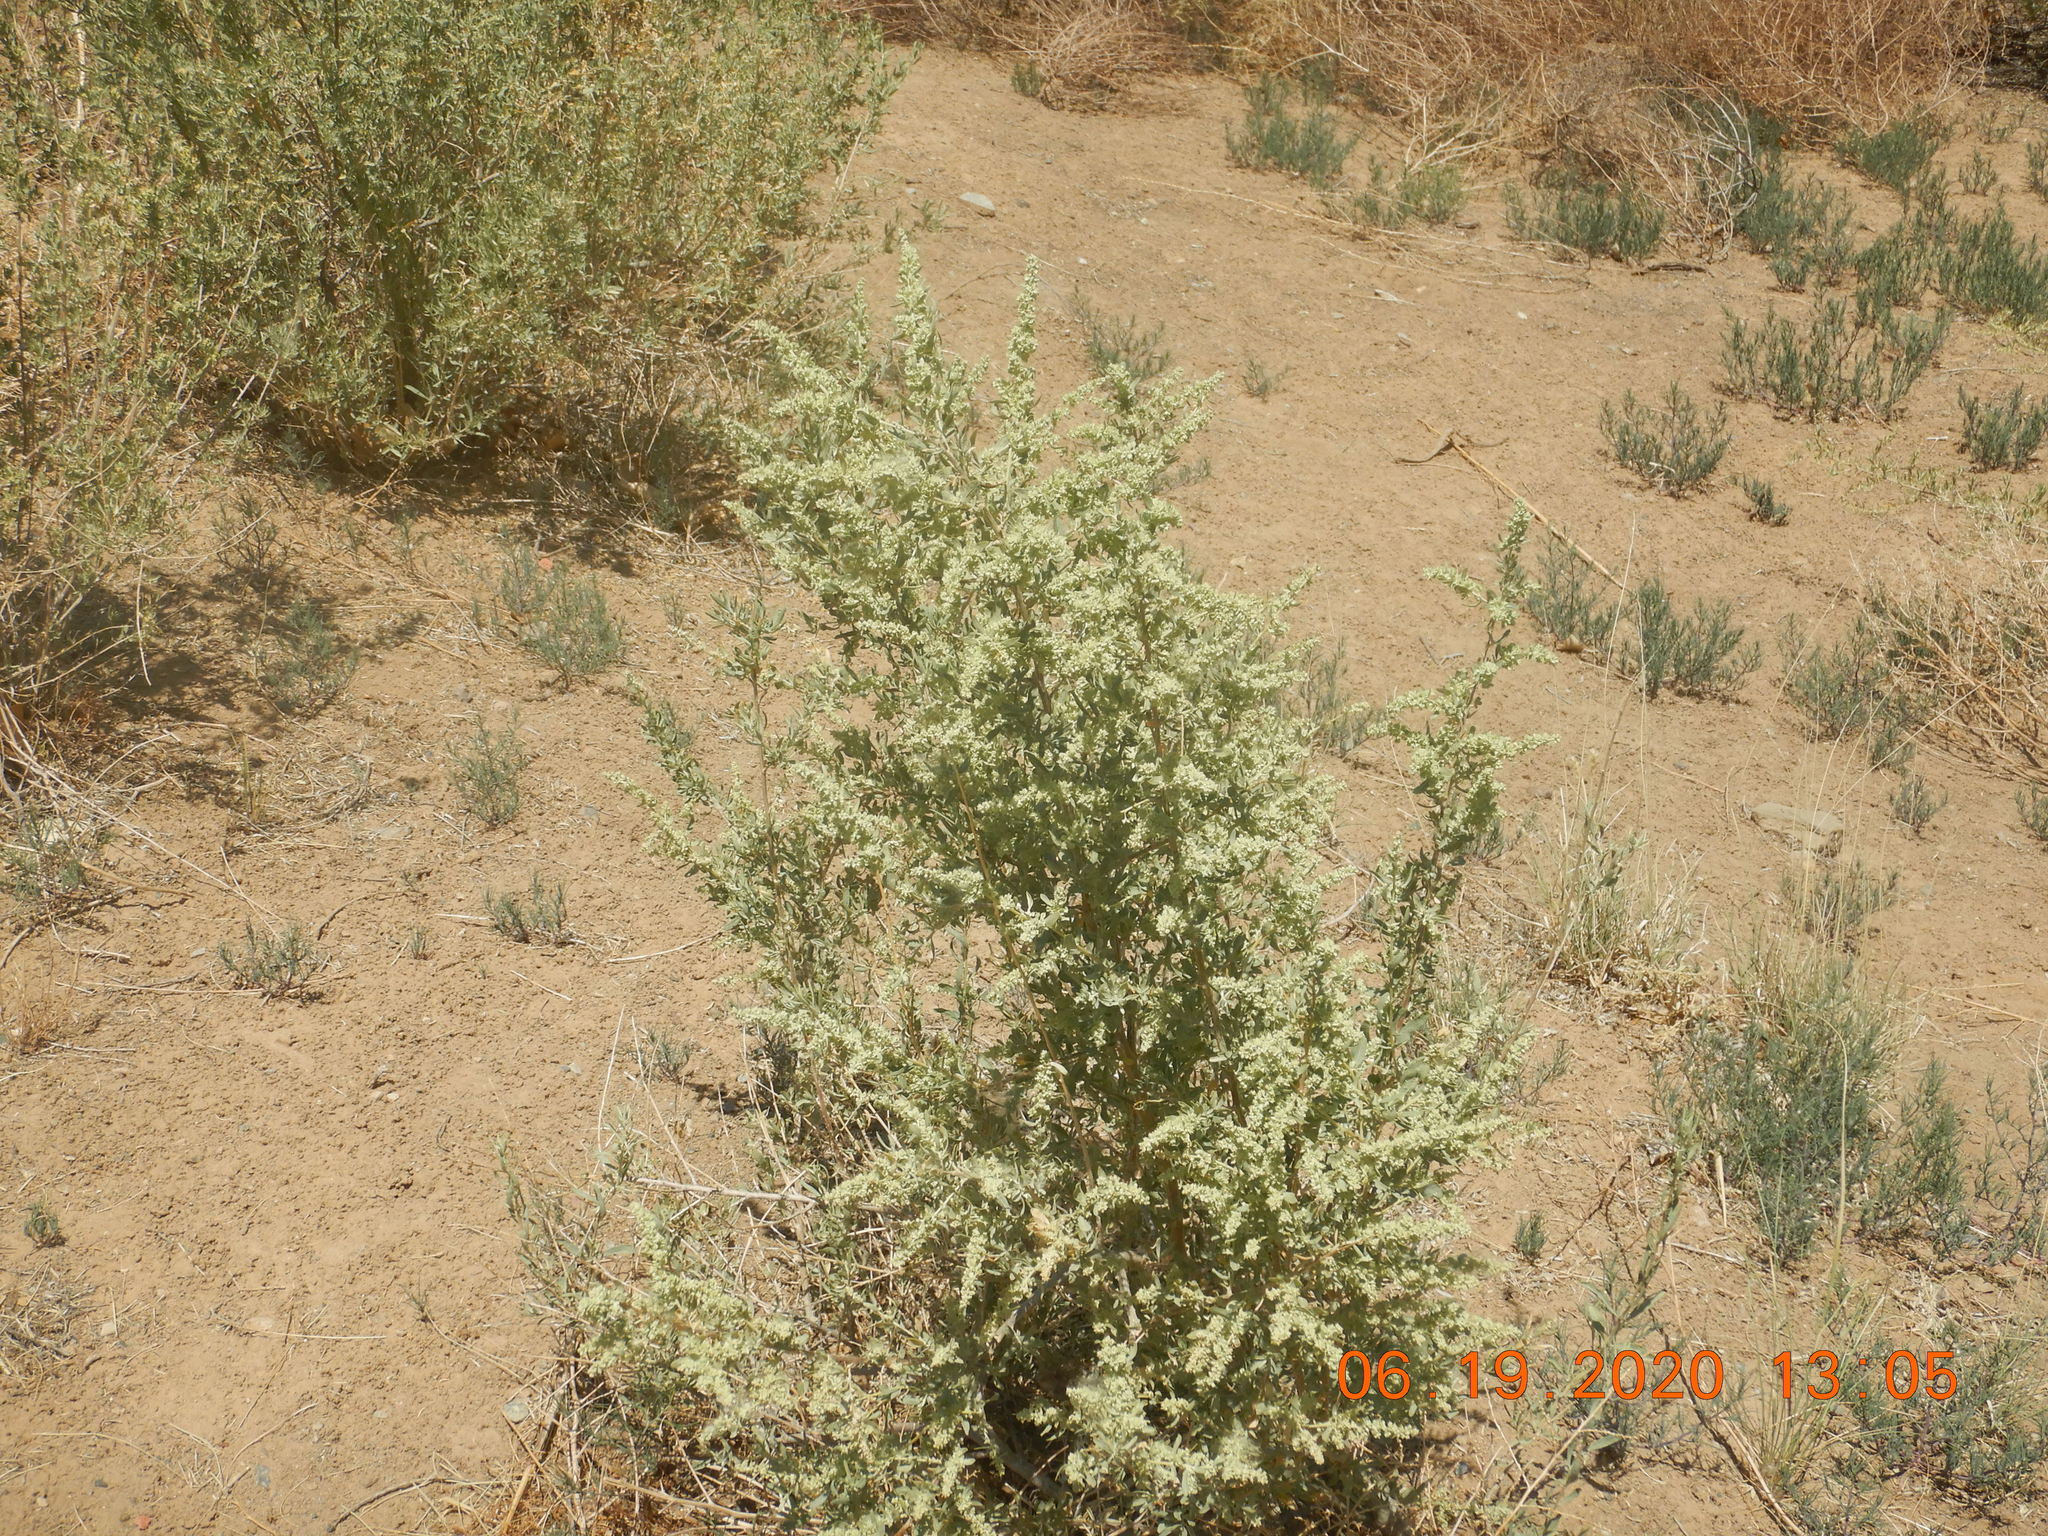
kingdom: Plantae
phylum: Tracheophyta
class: Magnoliopsida
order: Caryophyllales
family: Amaranthaceae
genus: Atriplex
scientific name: Atriplex canescens
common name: Four-wing saltbush
